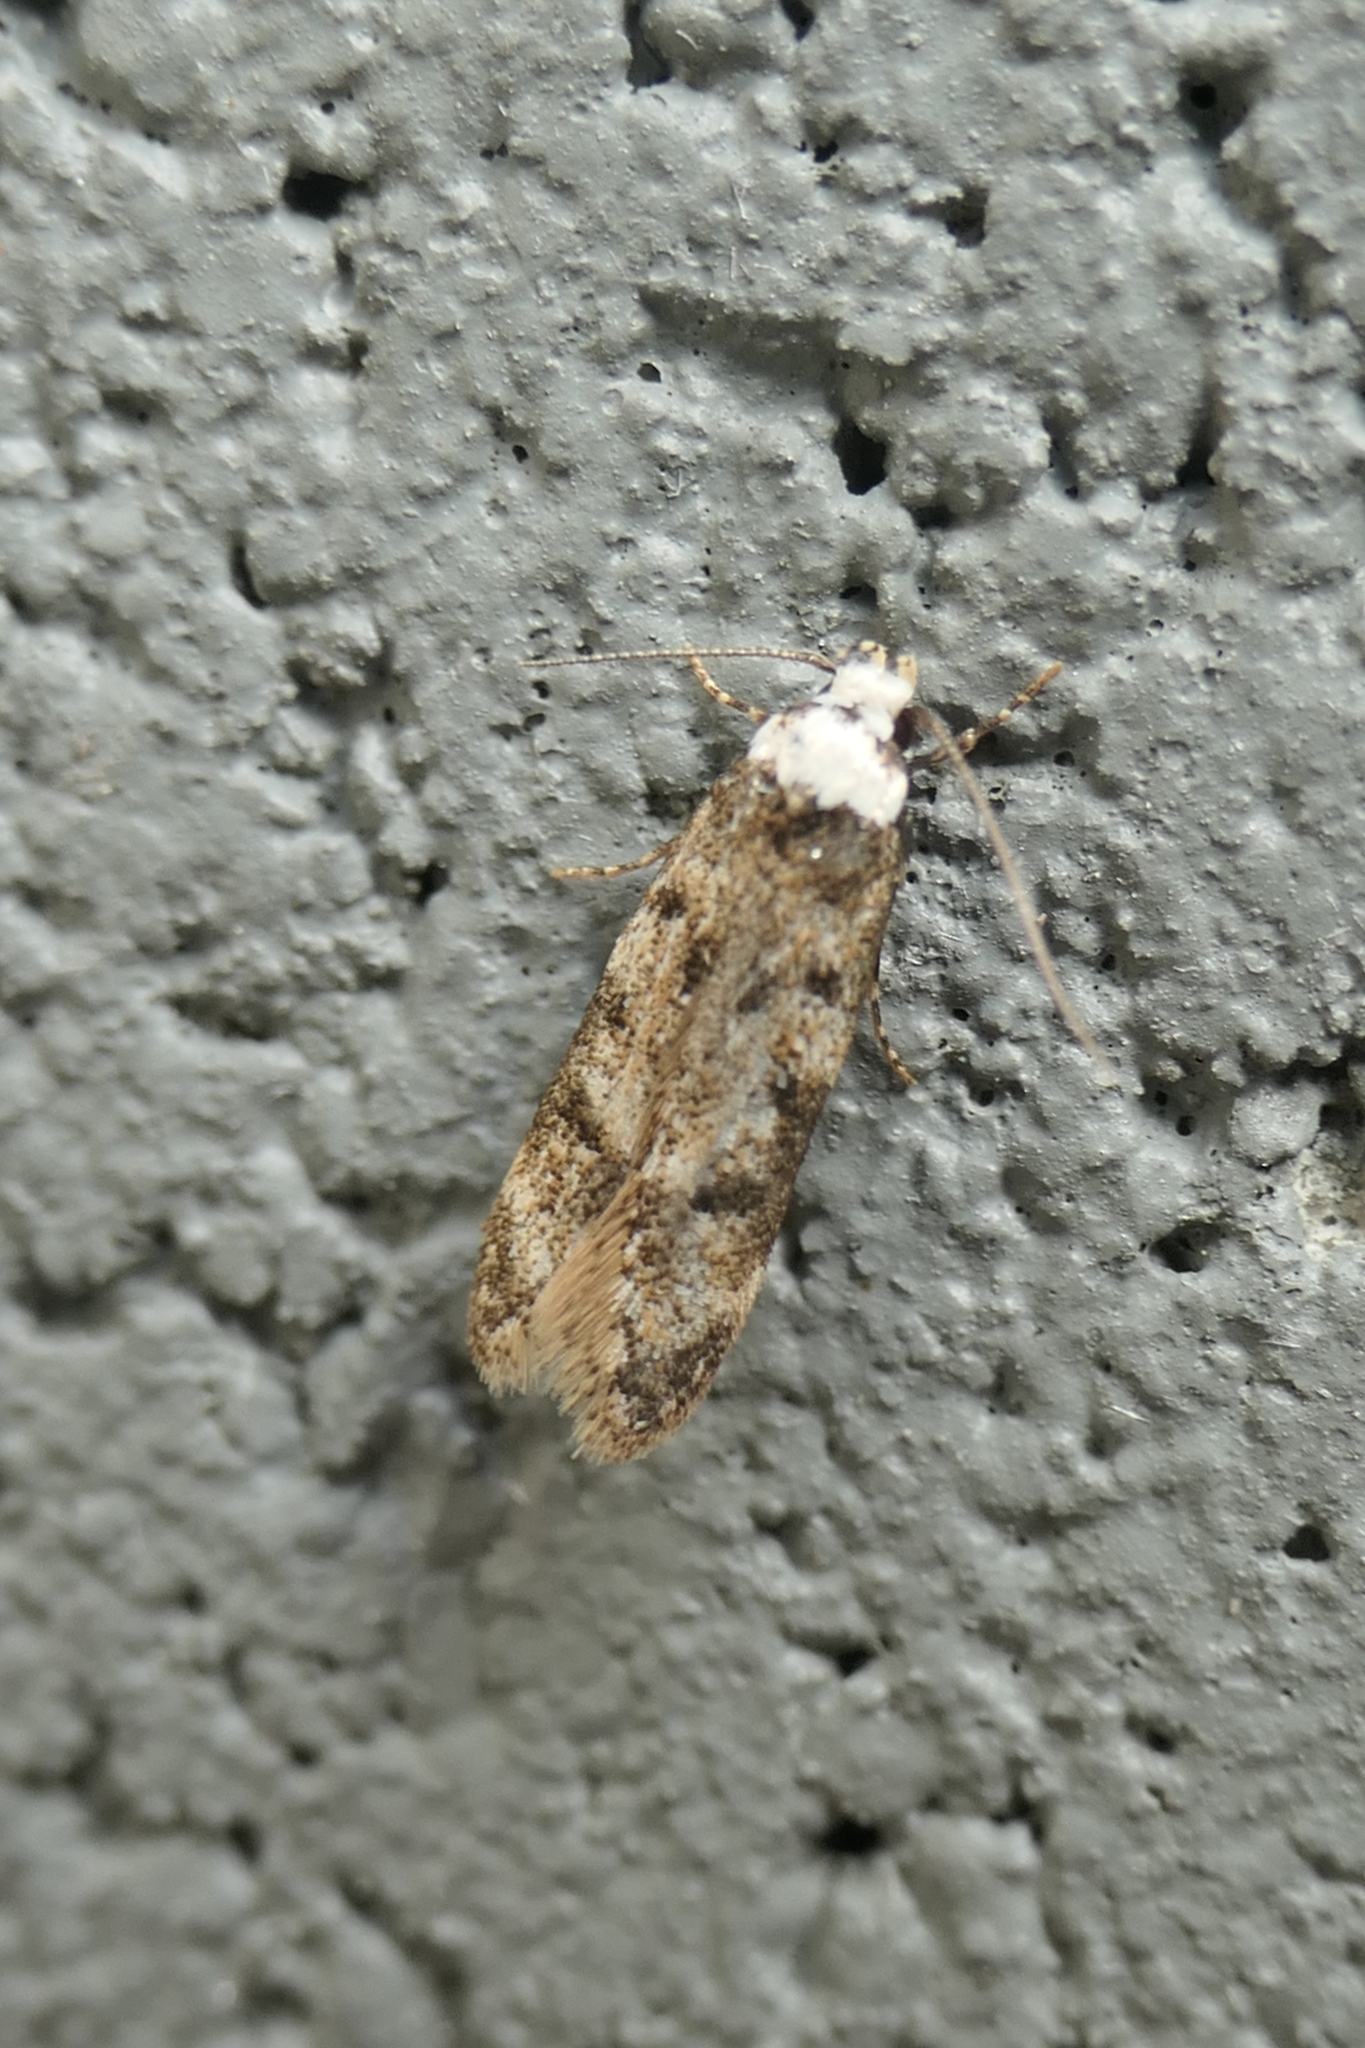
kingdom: Animalia
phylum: Arthropoda
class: Insecta
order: Lepidoptera
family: Oecophoridae
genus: Endrosis
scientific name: Endrosis sarcitrella
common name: White-shouldered house moth
